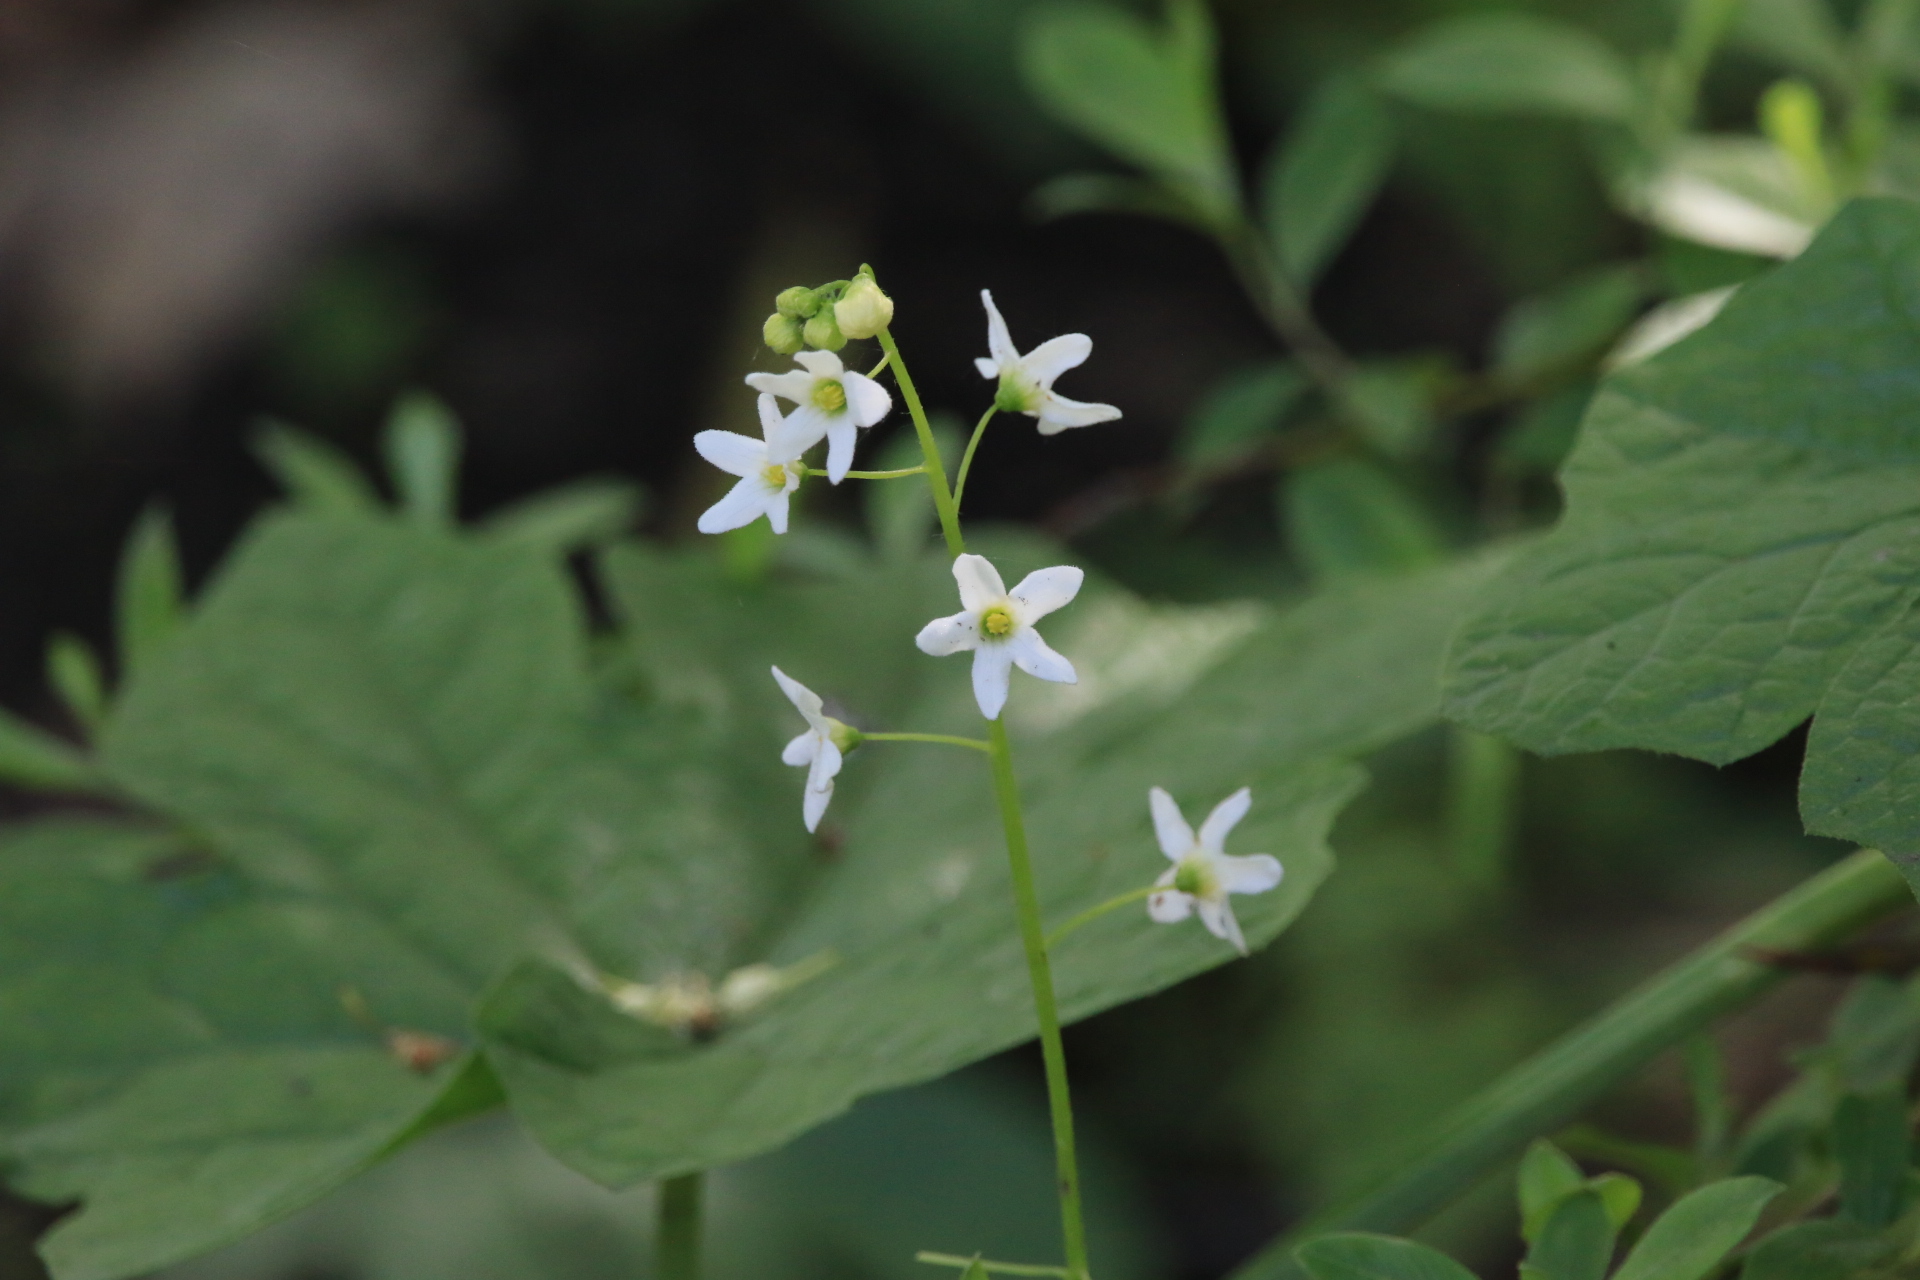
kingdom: Plantae
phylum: Tracheophyta
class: Magnoliopsida
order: Cucurbitales
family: Cucurbitaceae
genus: Marah
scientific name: Marah oregana
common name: Coastal manroot
